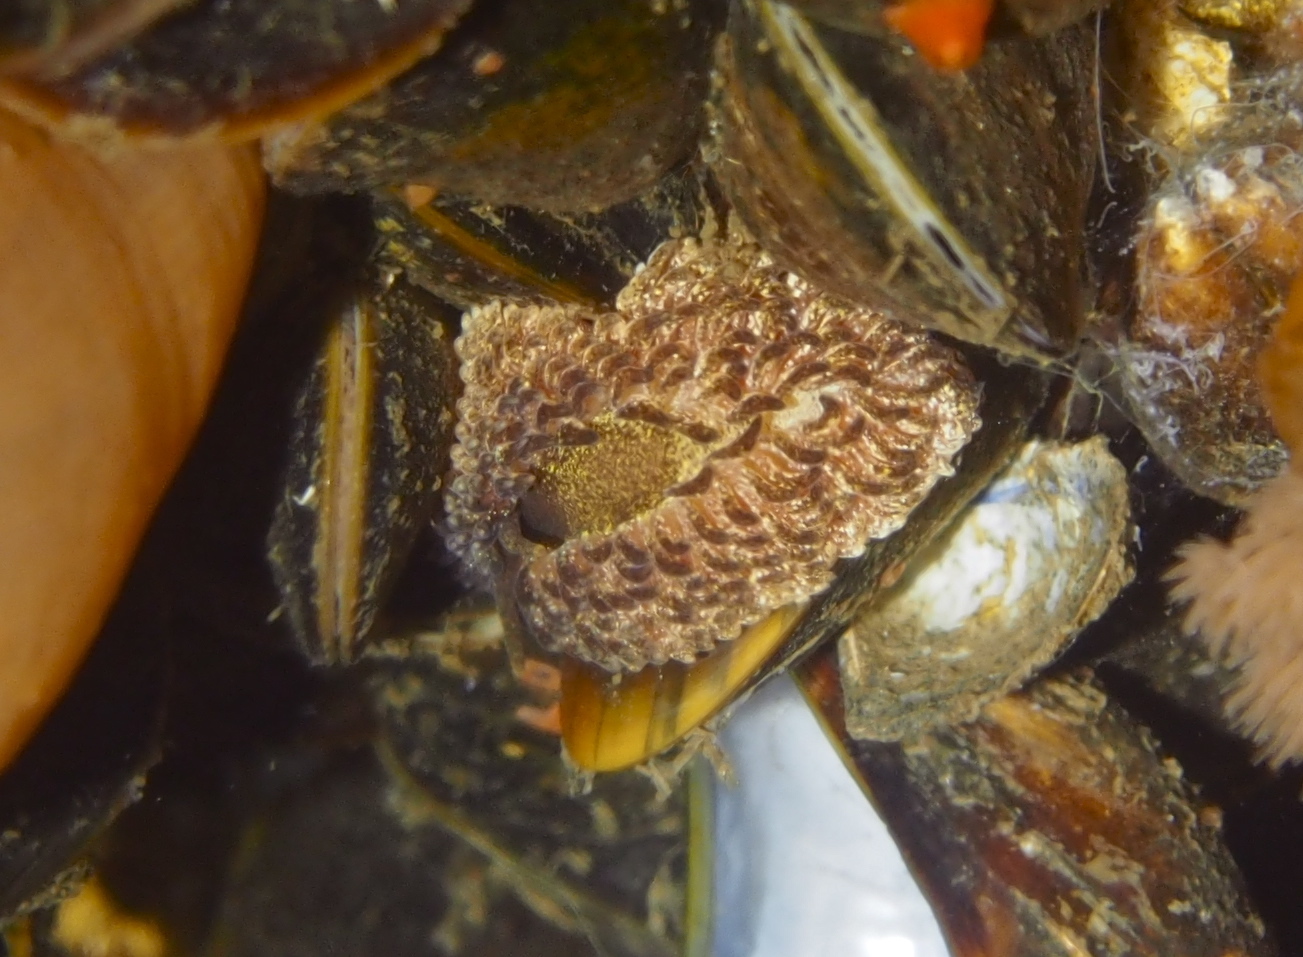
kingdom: Animalia
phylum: Mollusca
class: Gastropoda
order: Nudibranchia
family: Aeolidiidae
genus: Aeolidia
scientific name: Aeolidia papillosa
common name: Common grey sea slug
